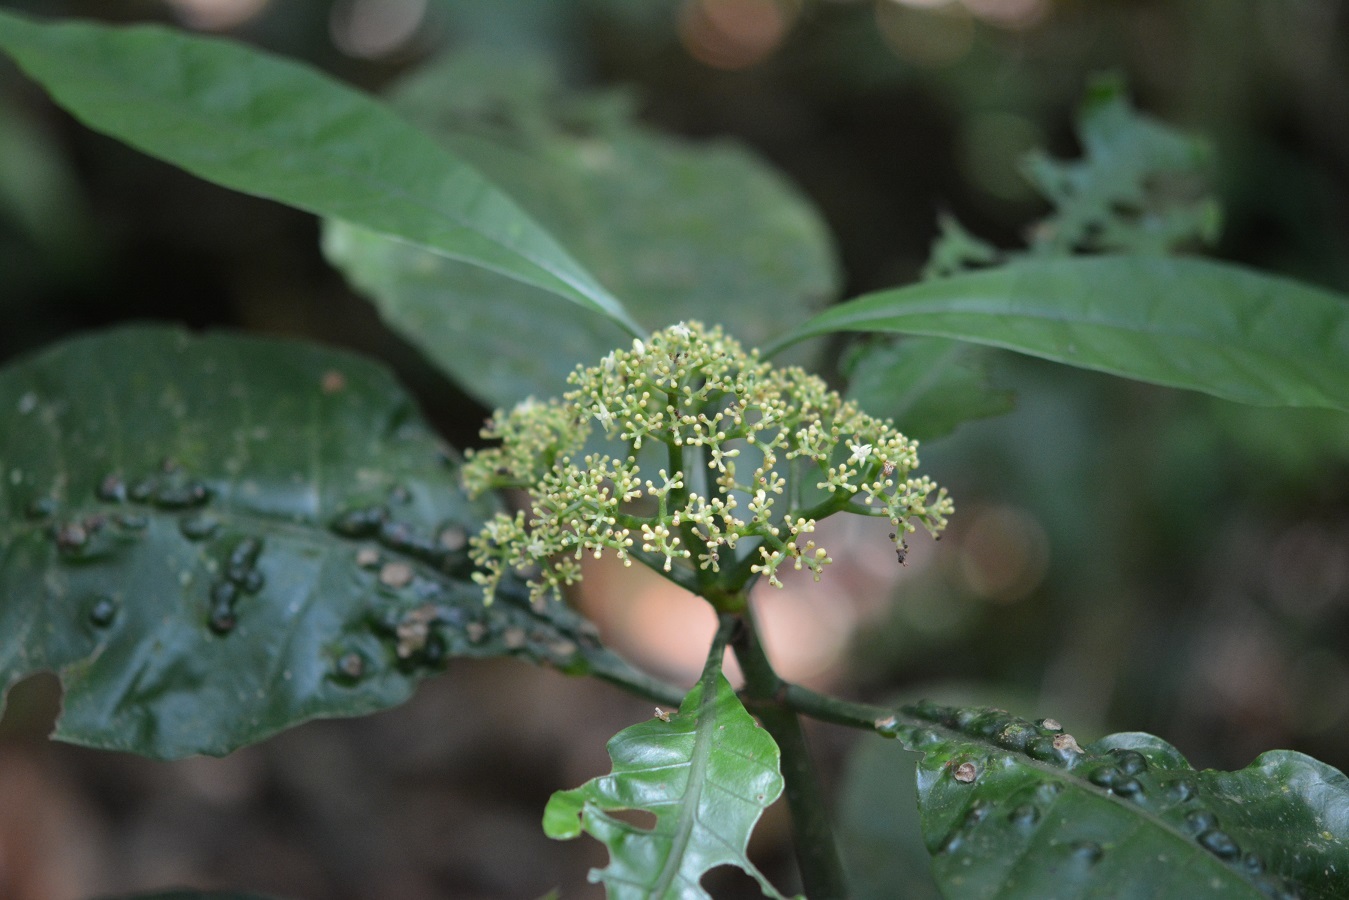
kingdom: Plantae
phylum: Tracheophyta
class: Magnoliopsida
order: Gentianales
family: Rubiaceae
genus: Psychotria
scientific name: Psychotria trichotoma
